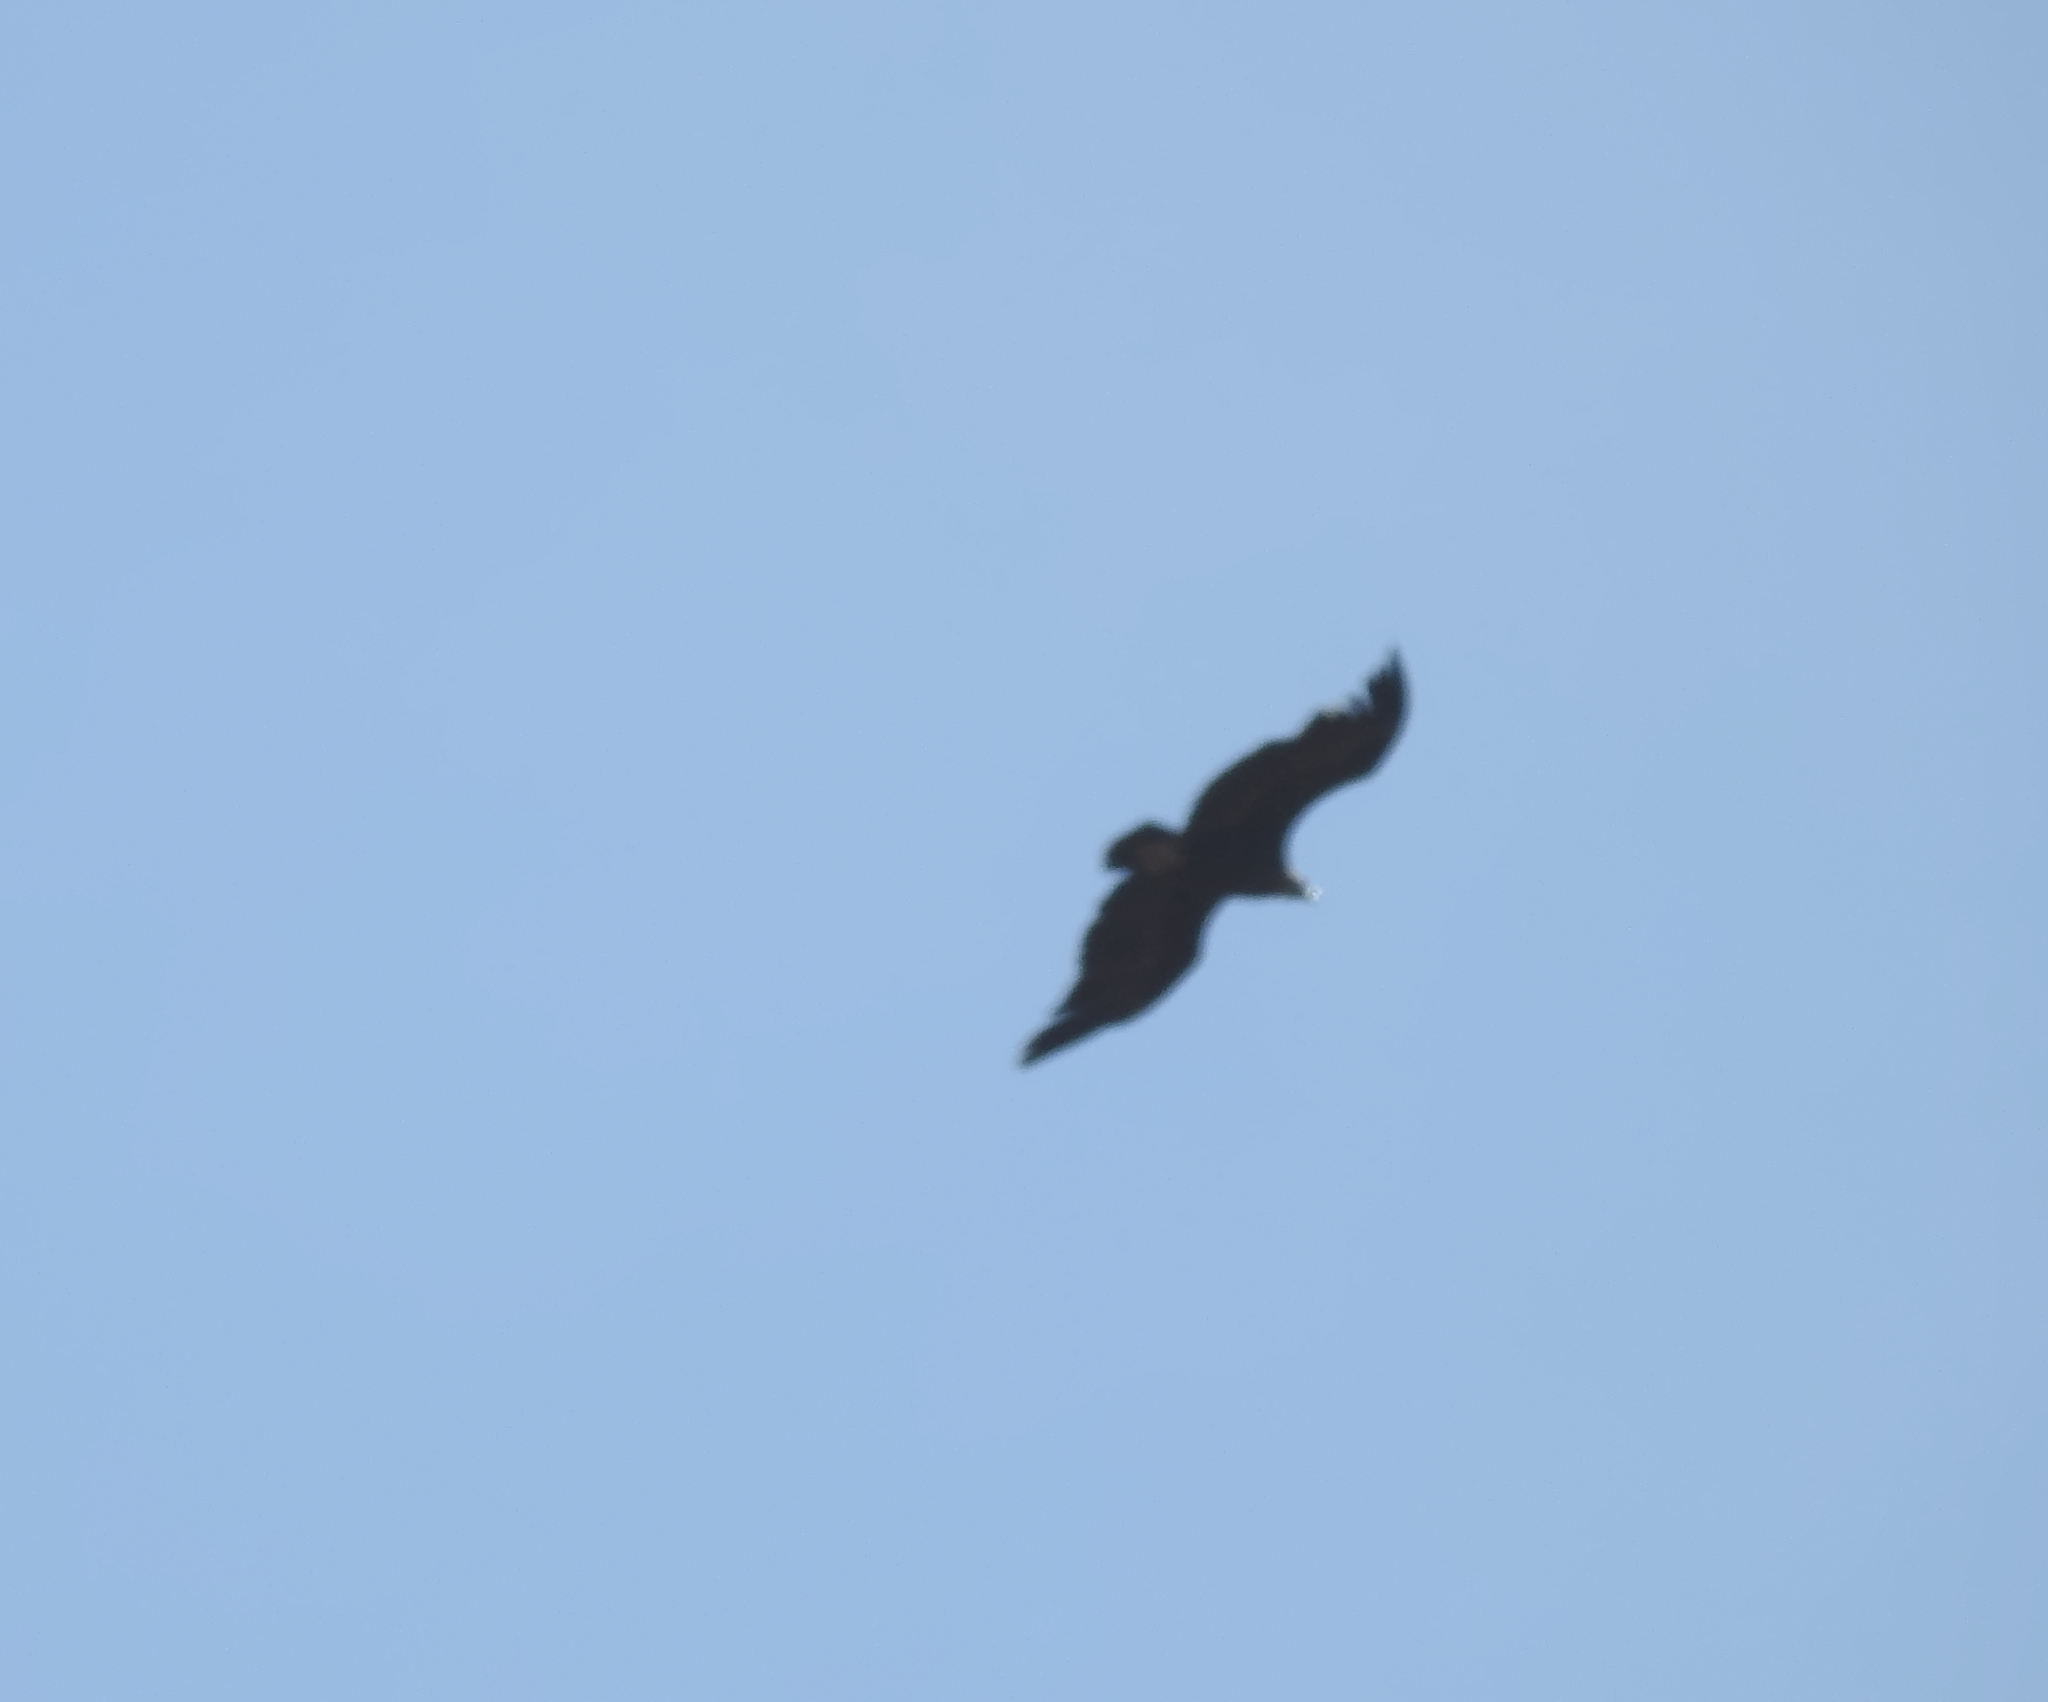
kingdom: Animalia
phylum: Chordata
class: Aves
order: Accipitriformes
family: Accipitridae
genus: Aquila
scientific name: Aquila adalberti
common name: Spanish imperial eagle
